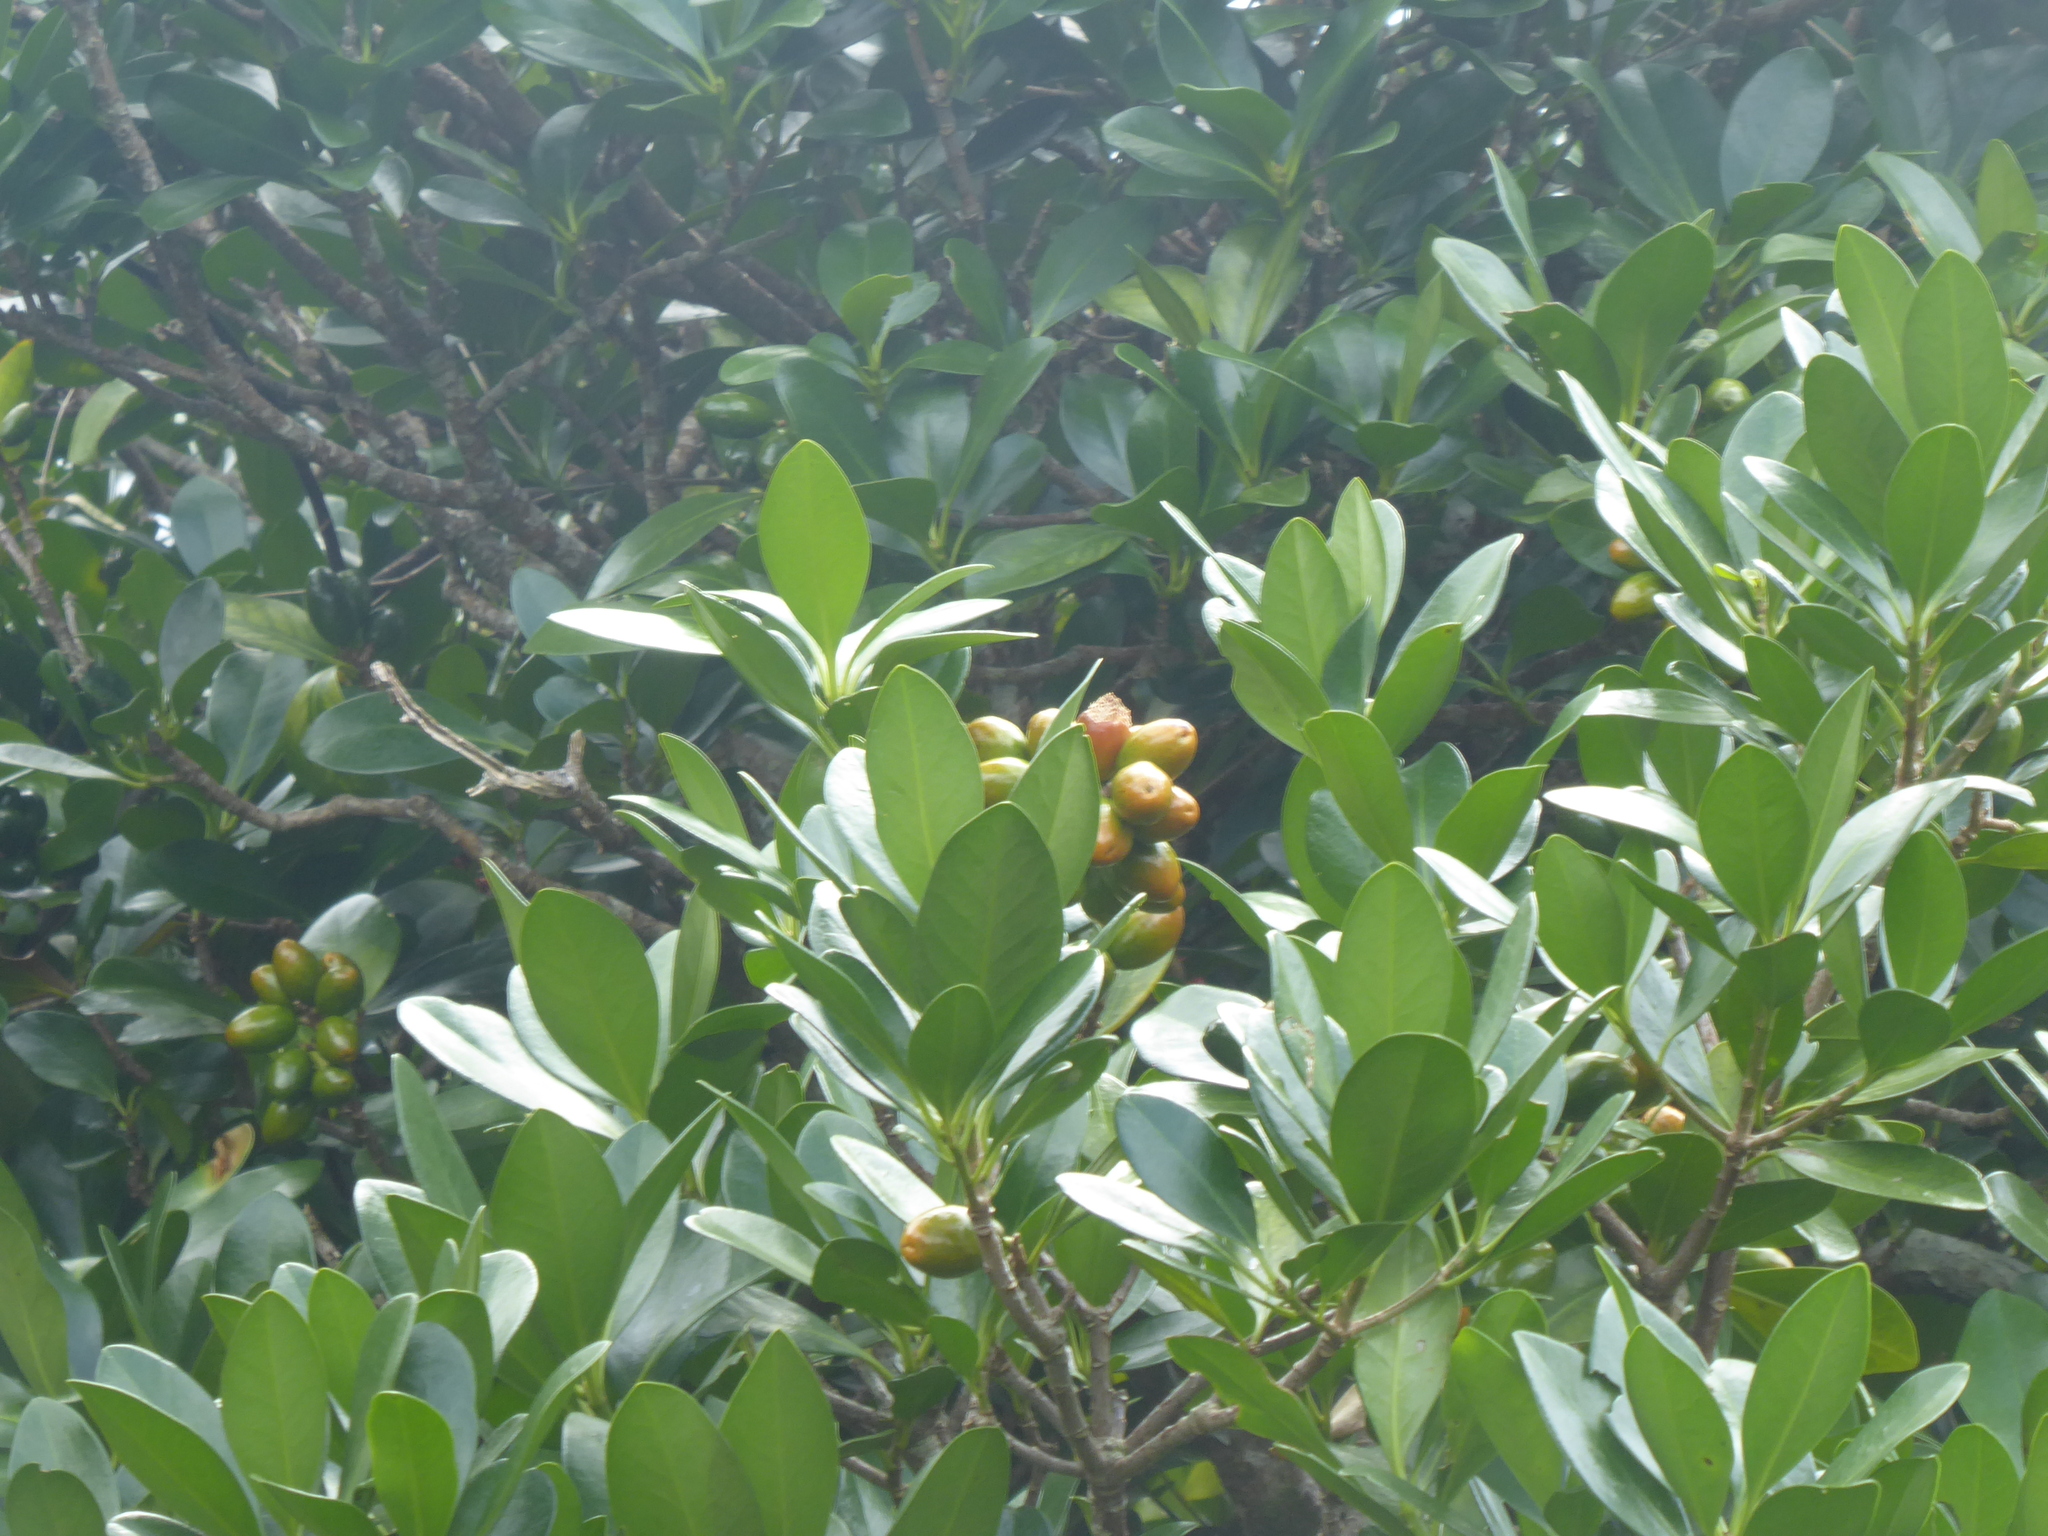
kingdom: Plantae
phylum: Tracheophyta
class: Magnoliopsida
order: Cucurbitales
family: Corynocarpaceae
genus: Corynocarpus
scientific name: Corynocarpus laevigatus
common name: New zealand laurel
